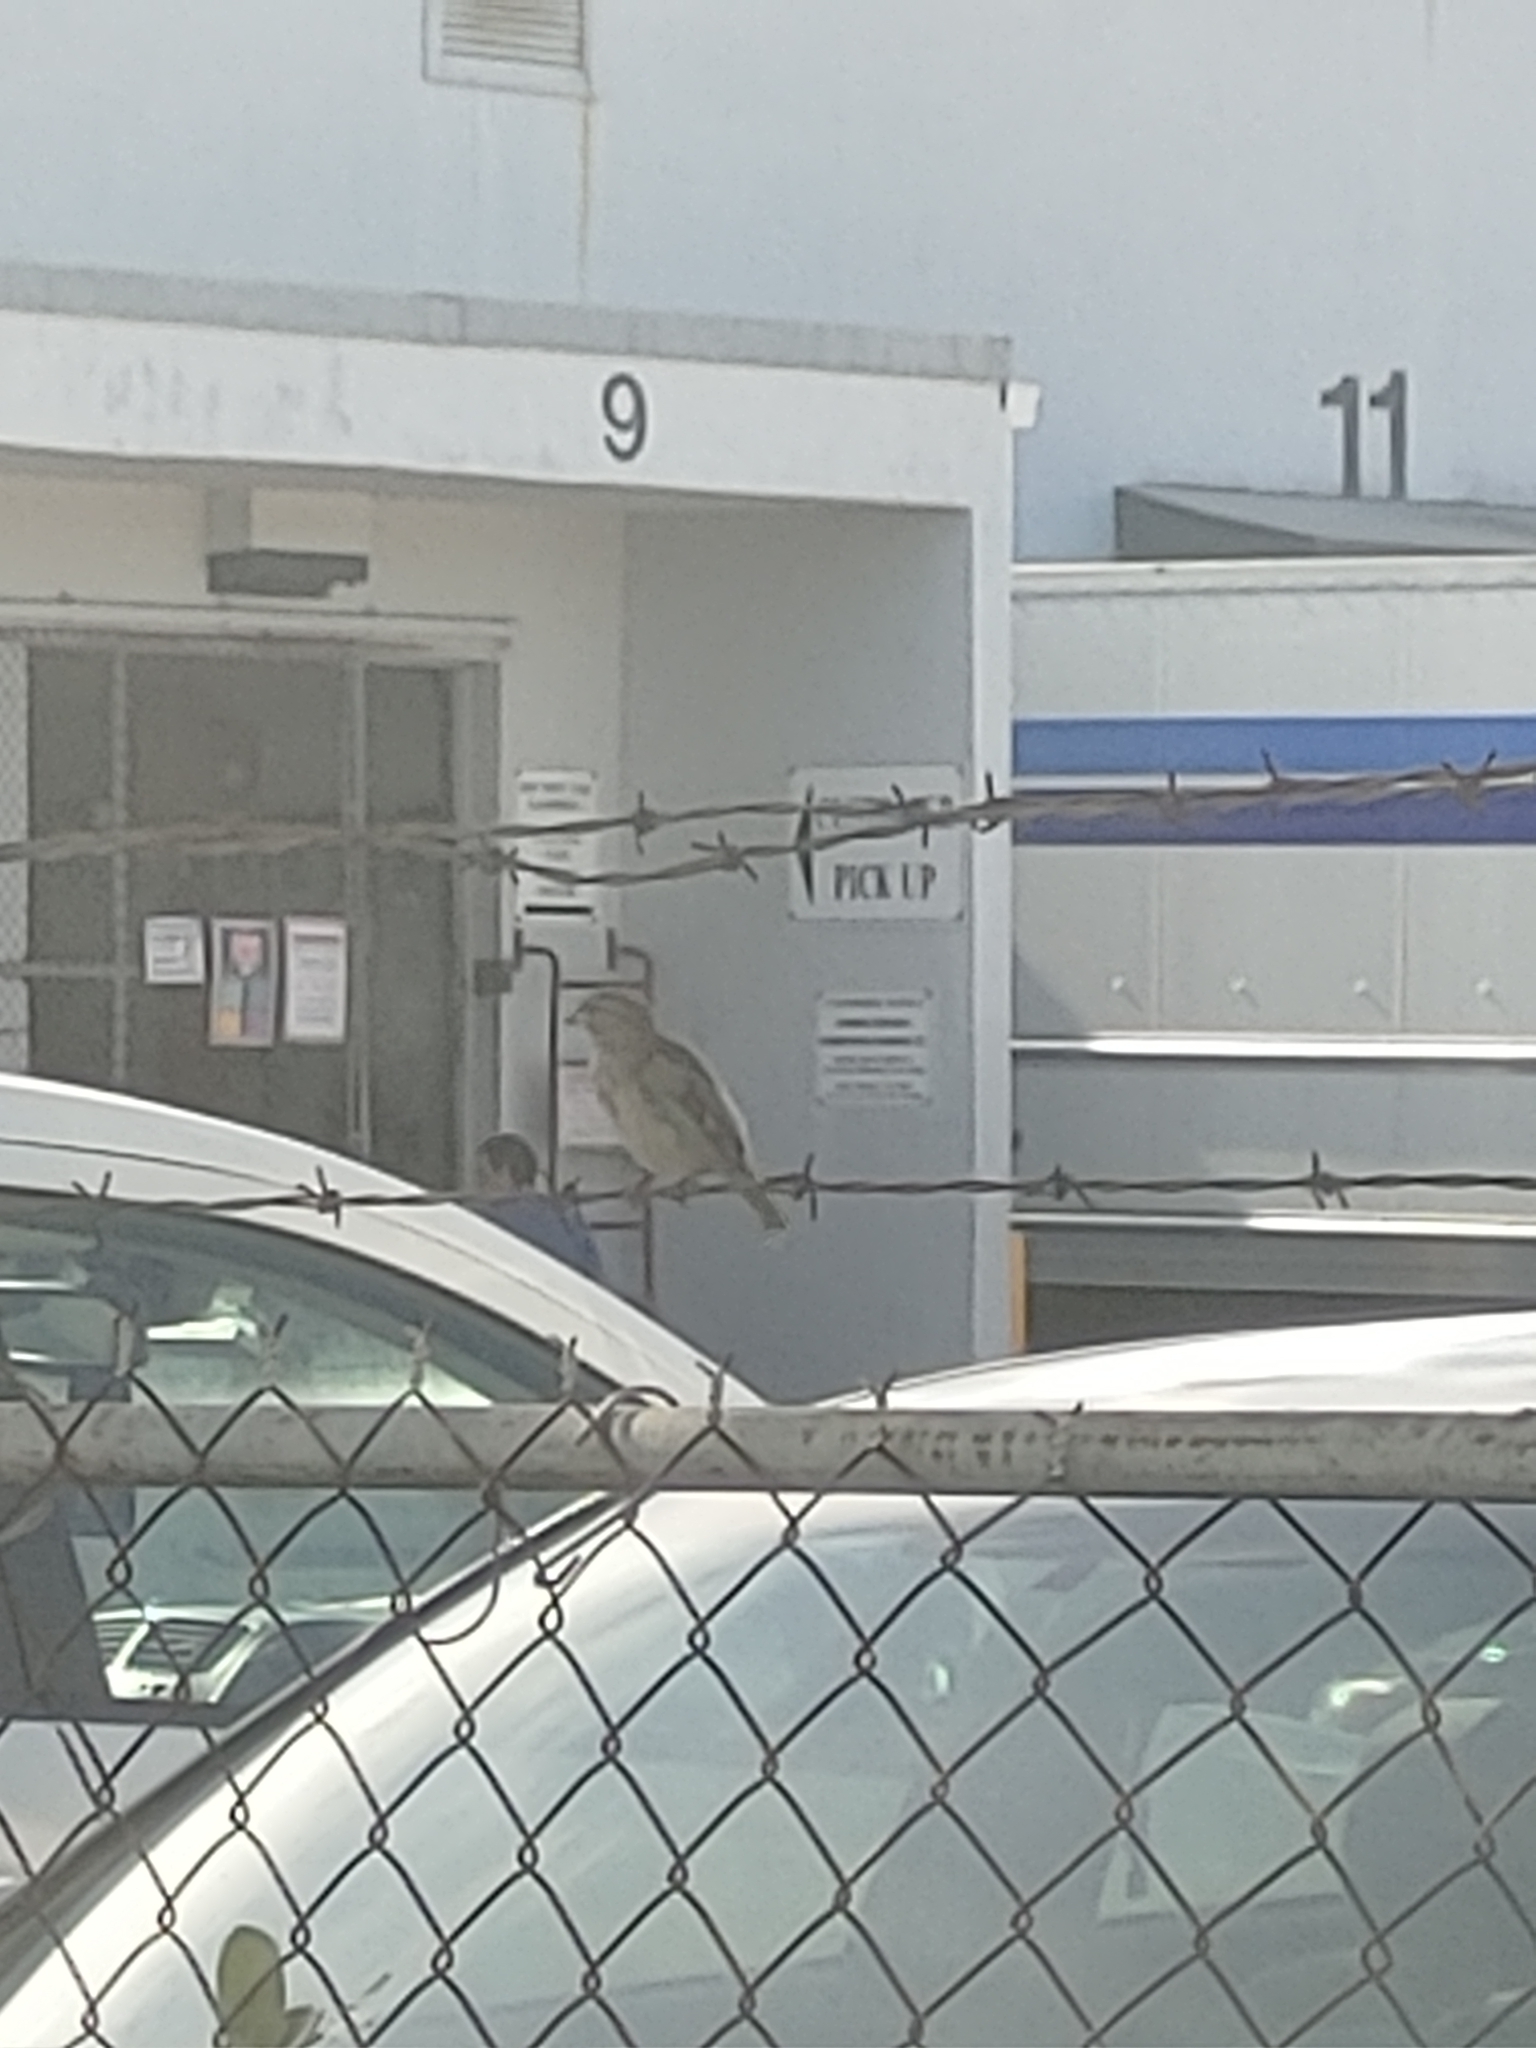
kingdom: Animalia
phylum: Chordata
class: Aves
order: Passeriformes
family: Passeridae
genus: Passer
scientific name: Passer domesticus
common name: House sparrow
